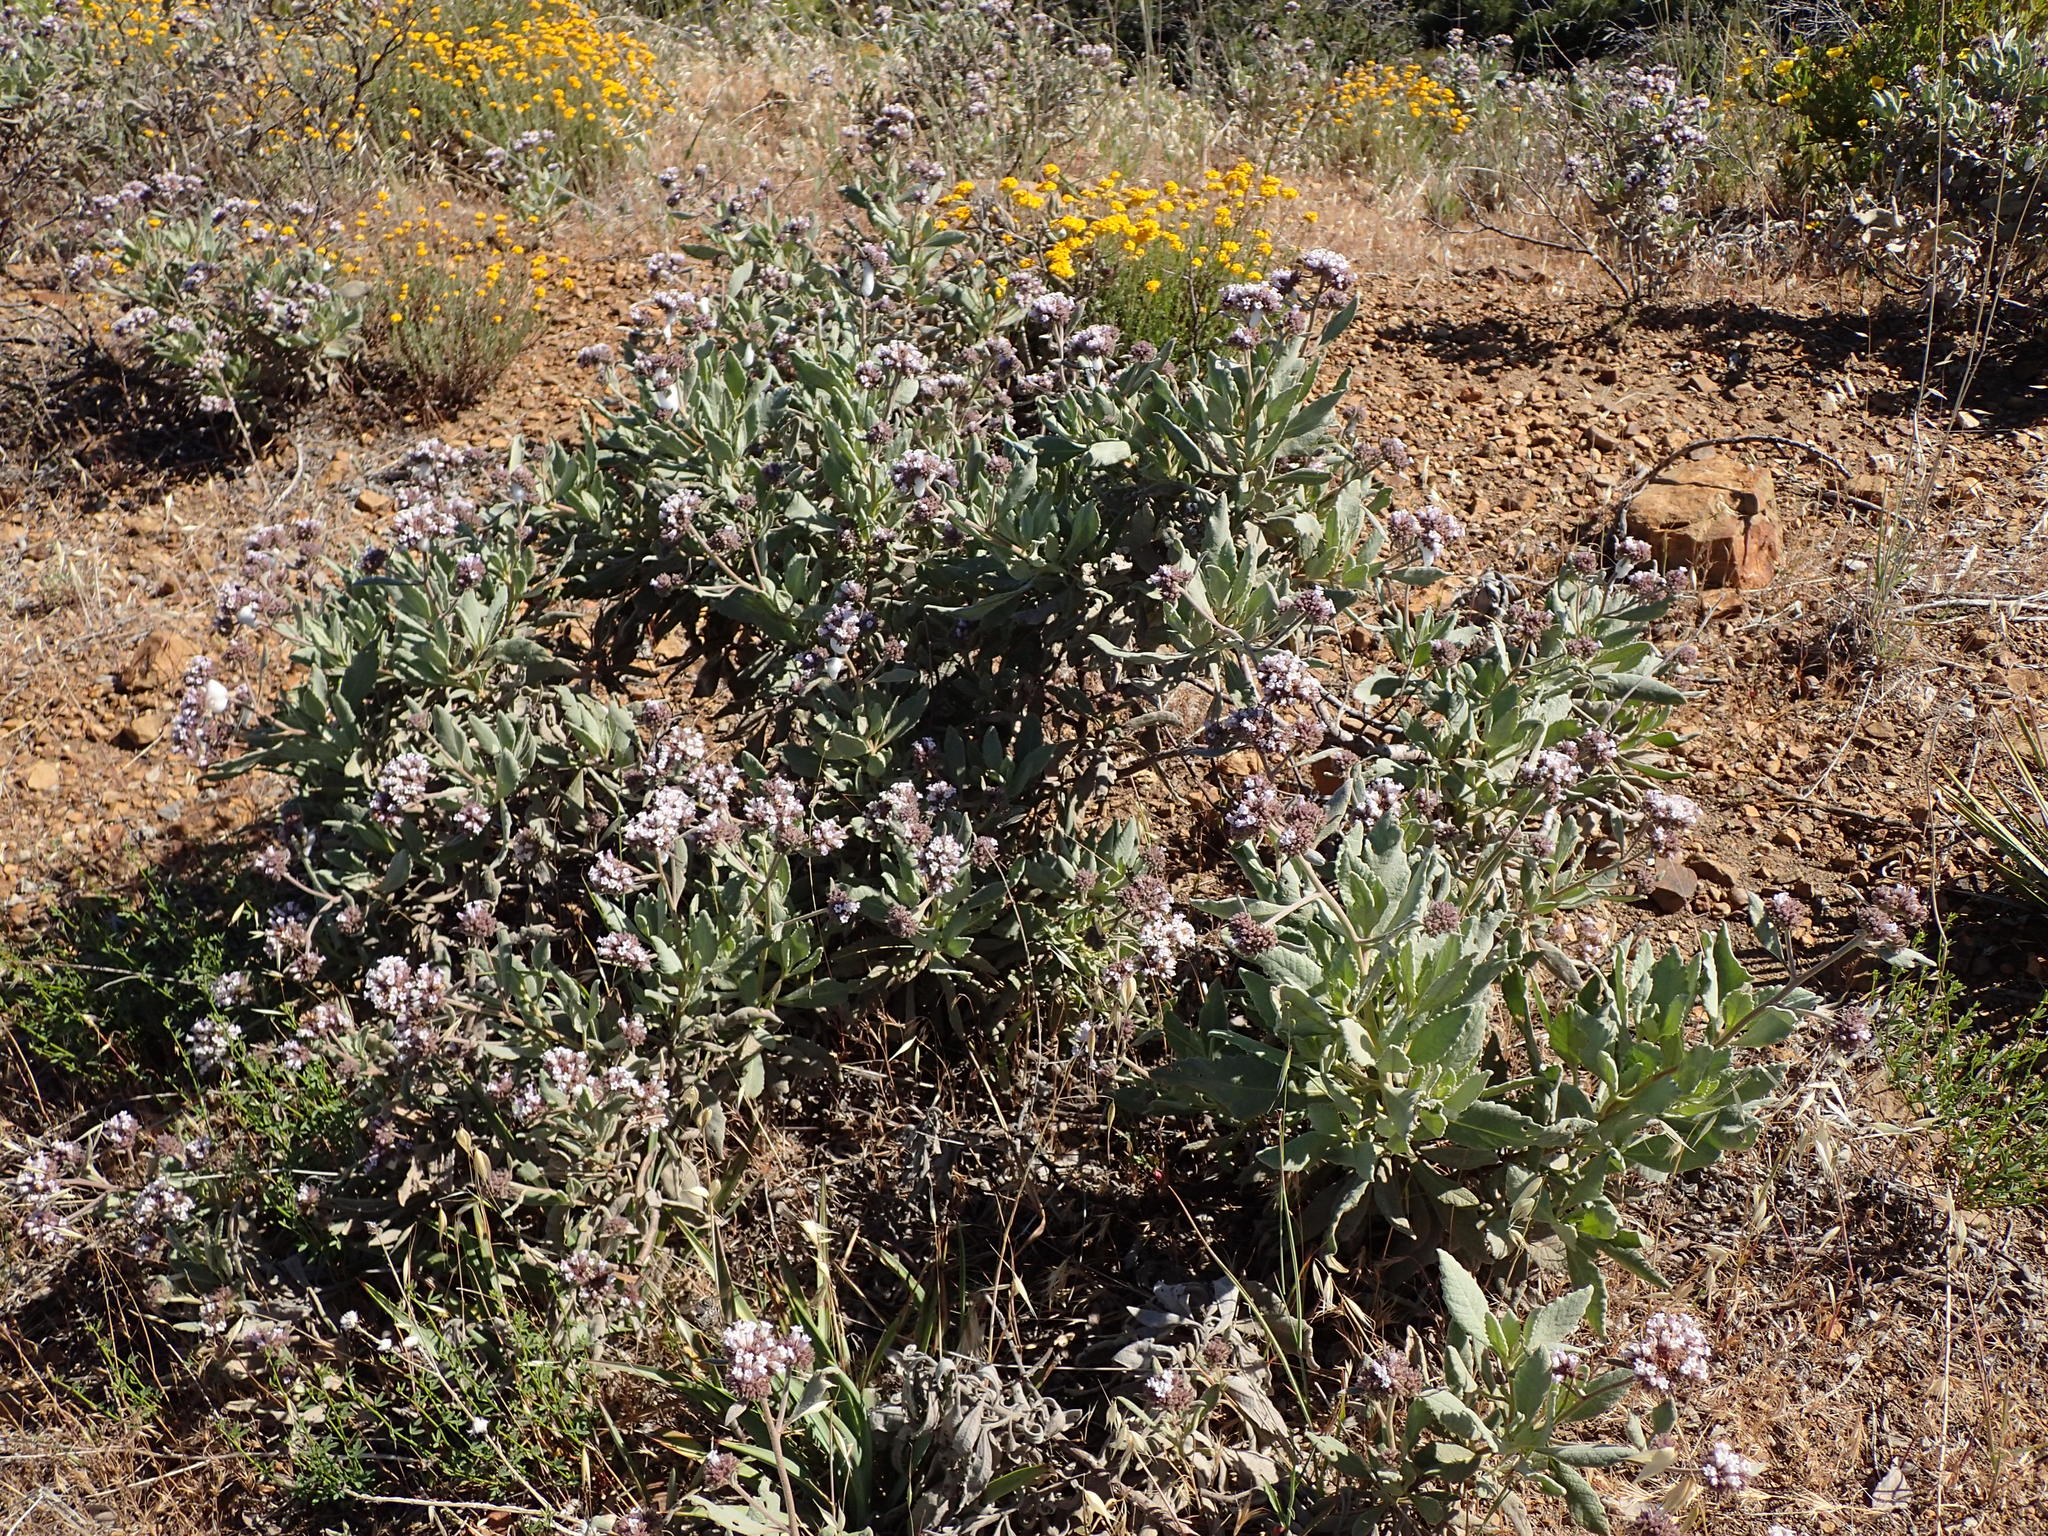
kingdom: Plantae
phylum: Tracheophyta
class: Magnoliopsida
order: Boraginales
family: Namaceae
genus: Eriodictyon
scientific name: Eriodictyon traskiae
